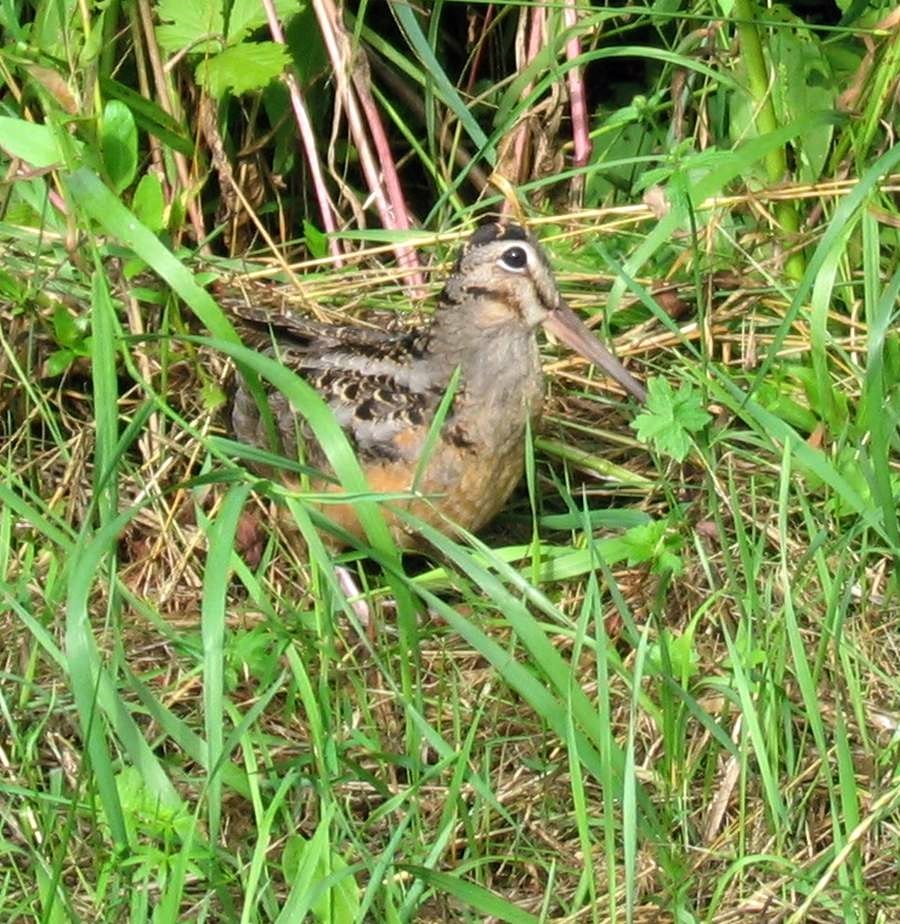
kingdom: Animalia
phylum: Chordata
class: Aves
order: Charadriiformes
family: Scolopacidae
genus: Scolopax
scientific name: Scolopax minor
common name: American woodcock
